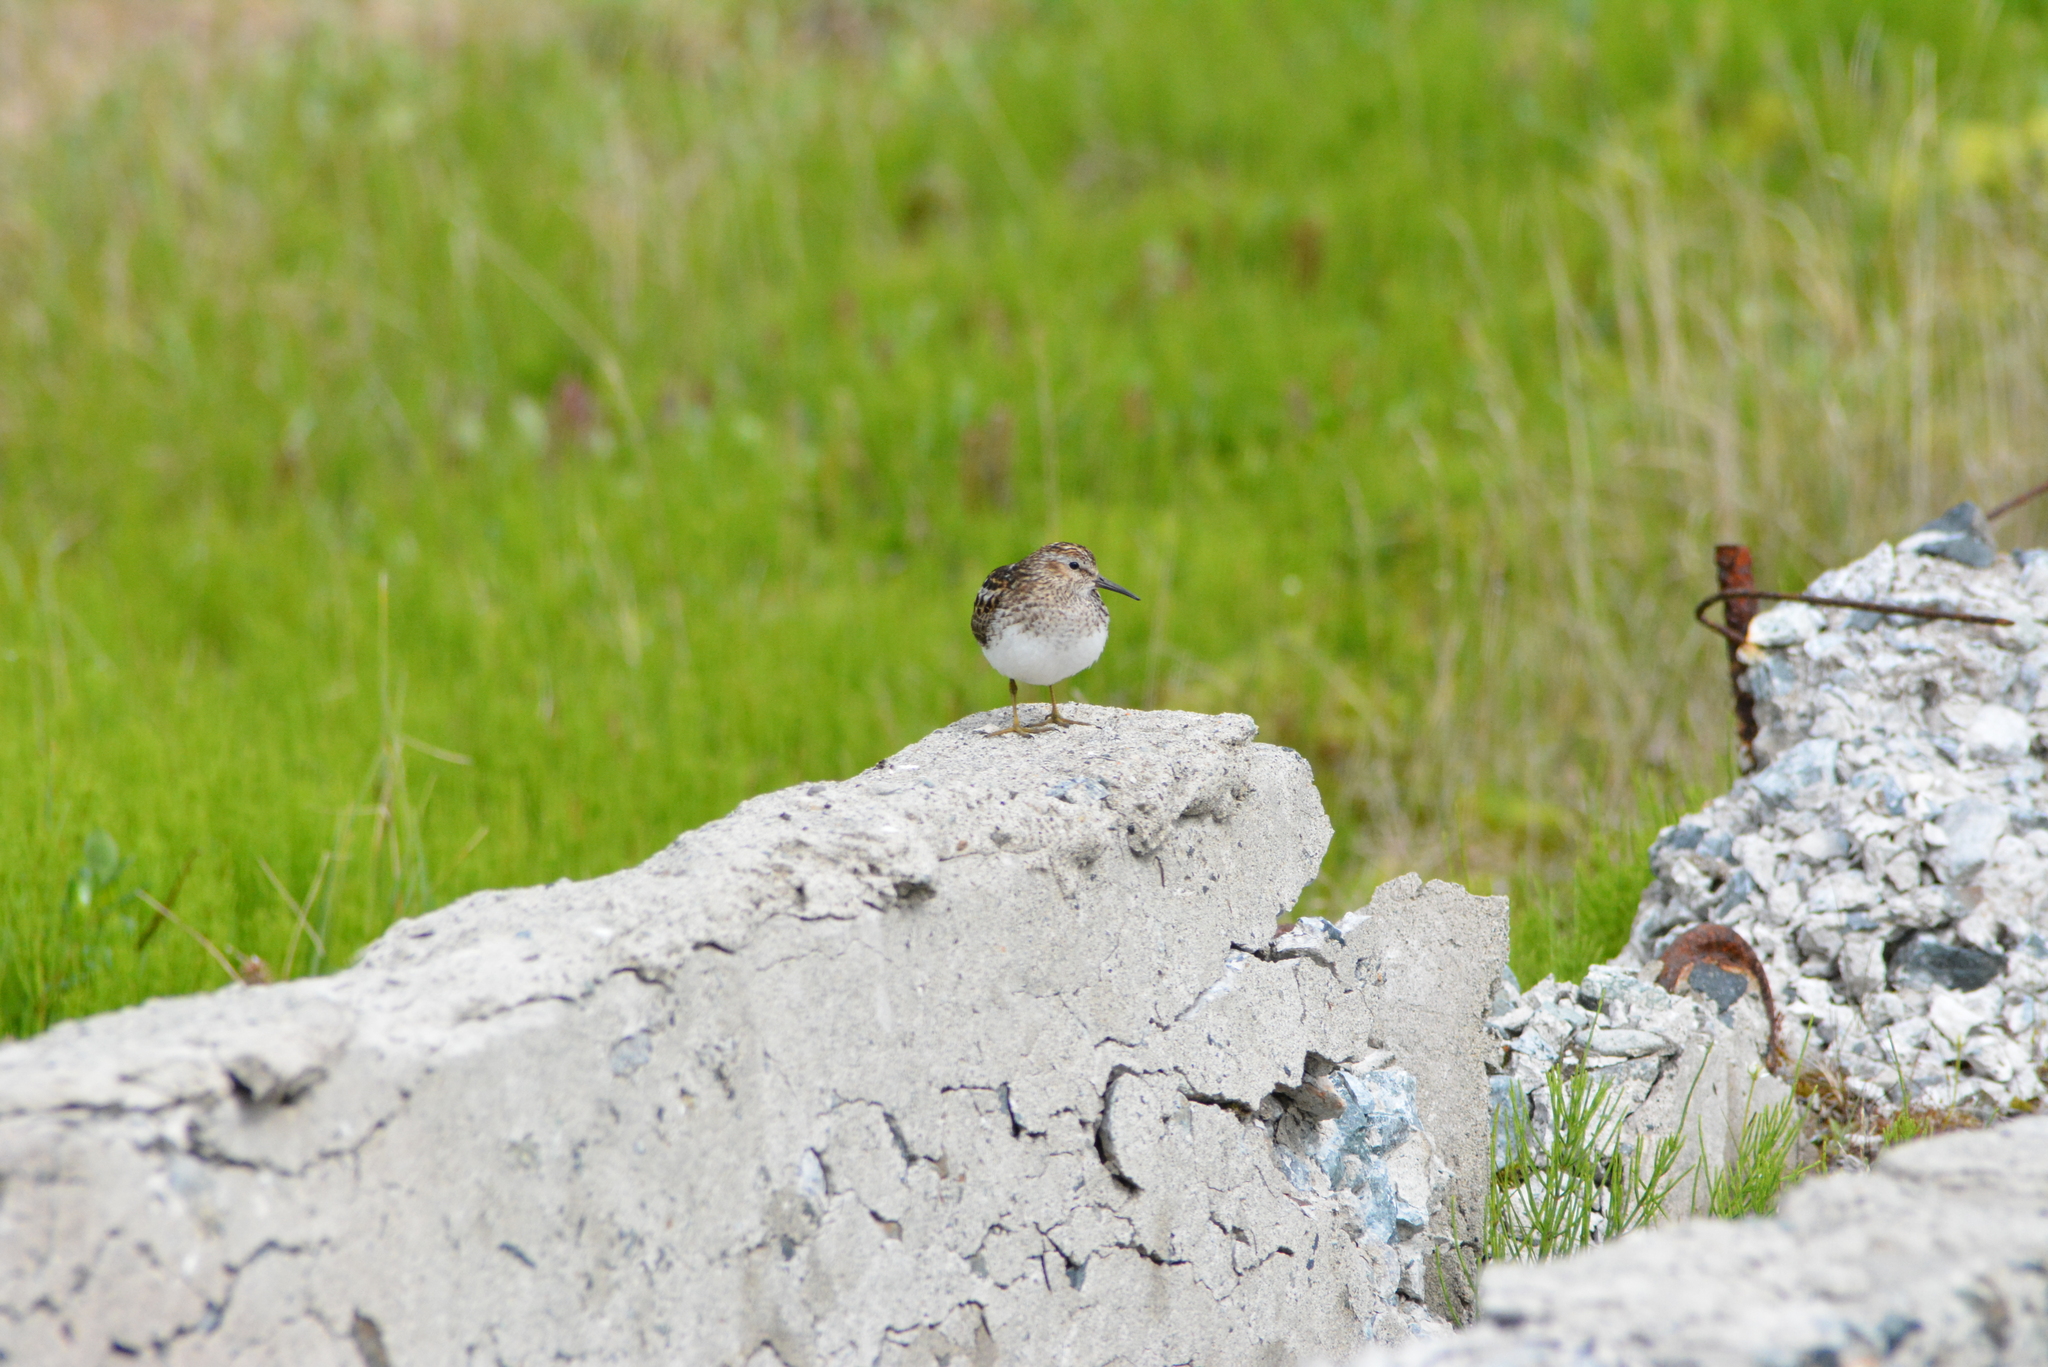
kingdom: Animalia
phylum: Chordata
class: Aves
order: Charadriiformes
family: Scolopacidae
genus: Calidris
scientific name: Calidris minutilla
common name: Least sandpiper
